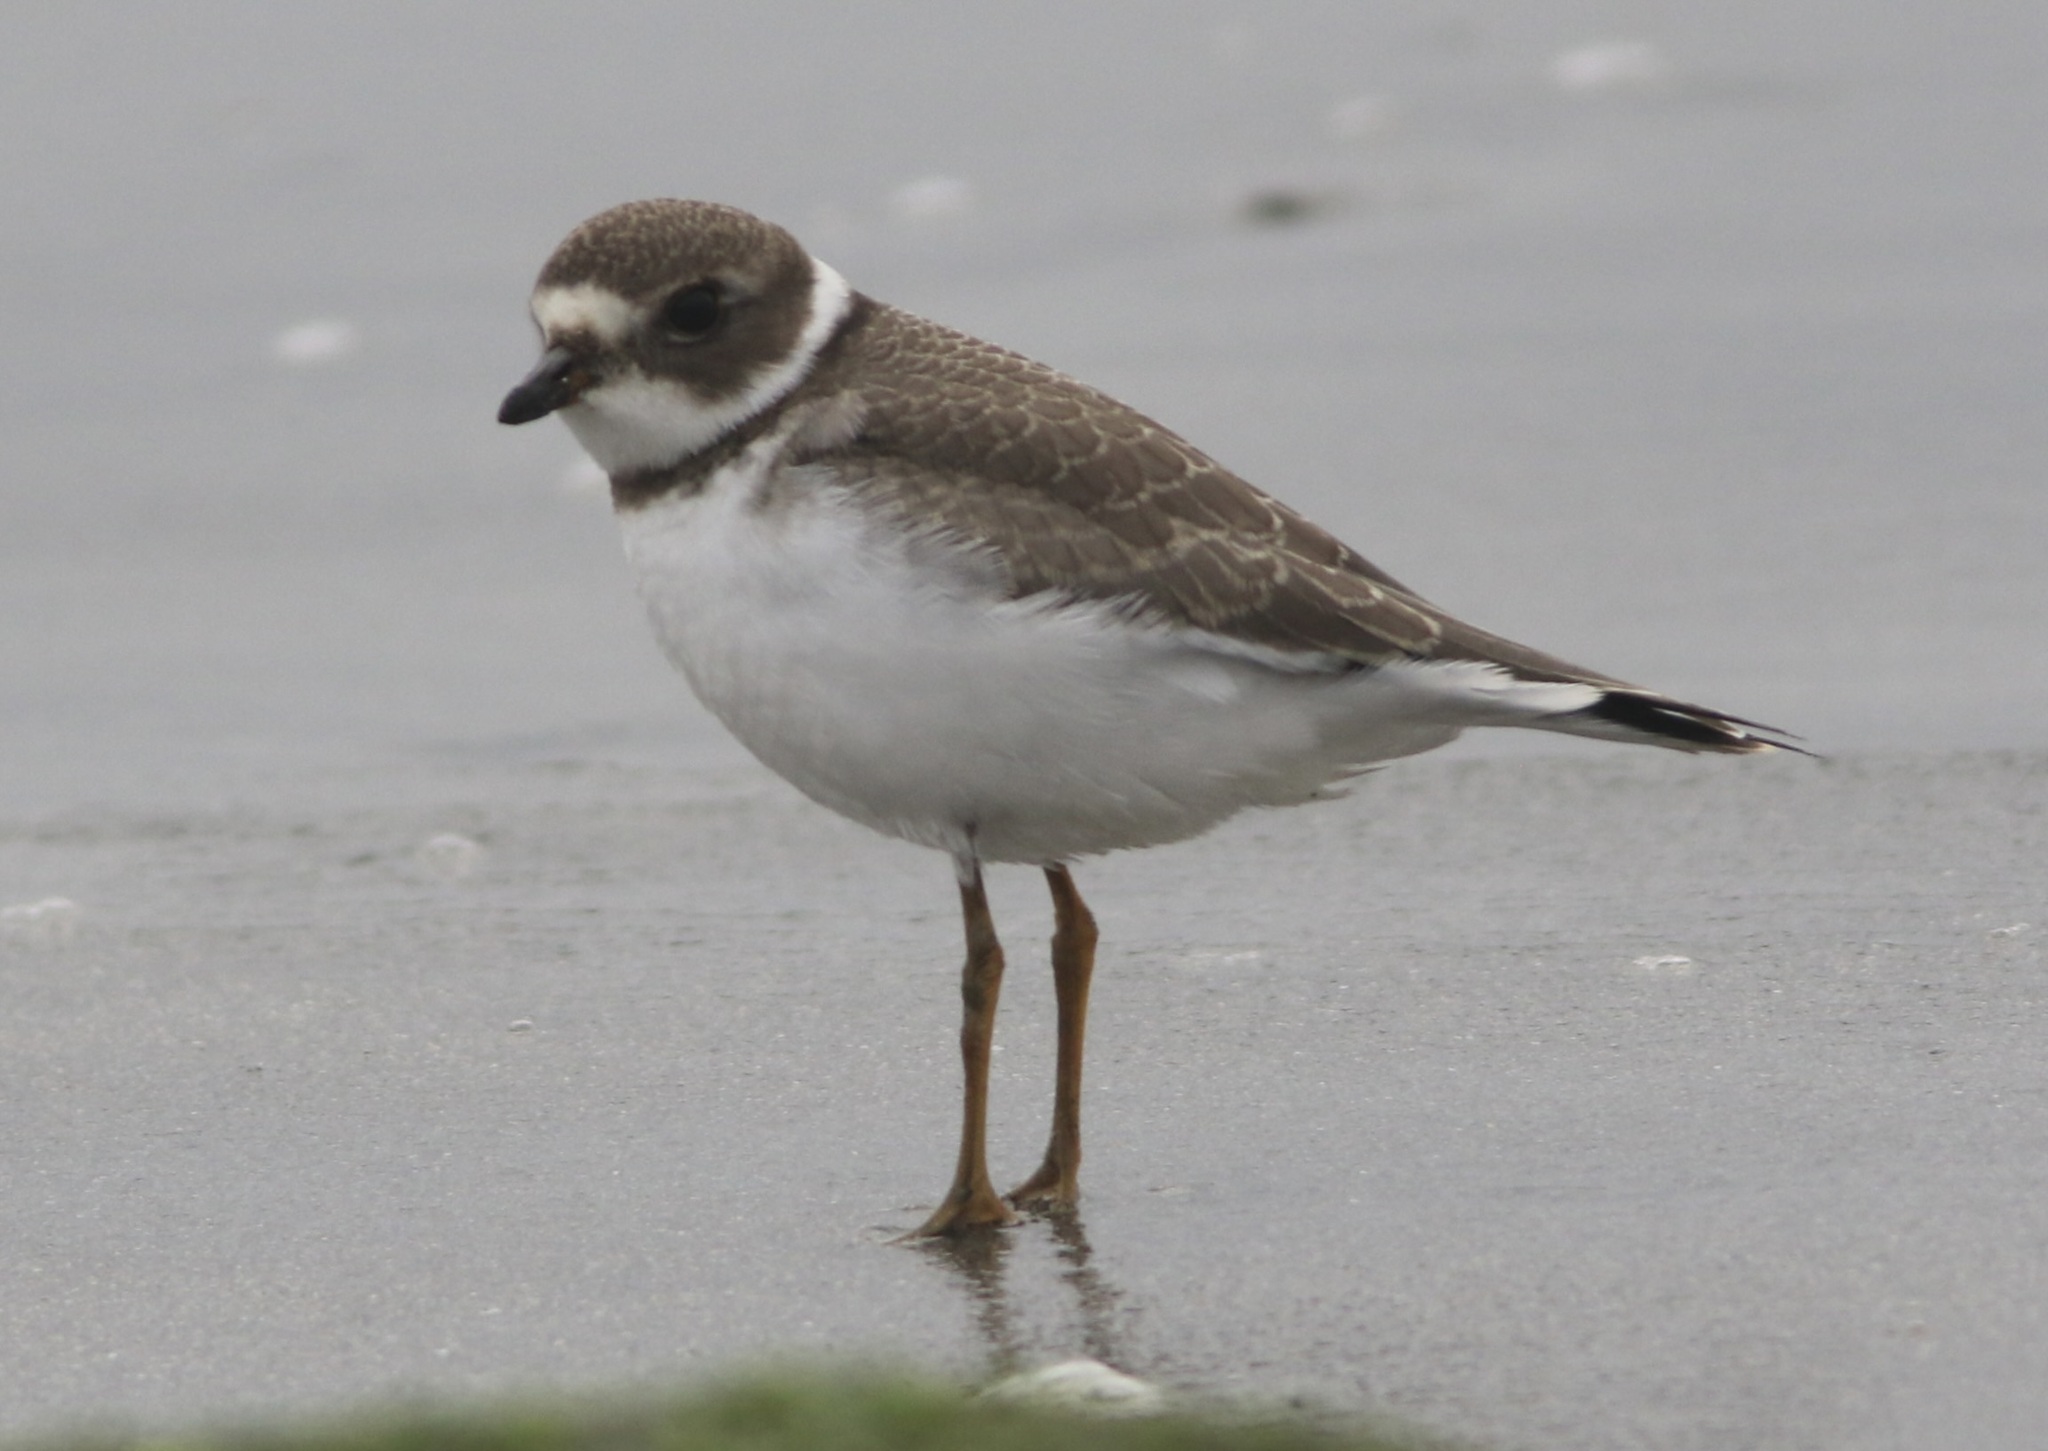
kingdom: Animalia
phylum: Chordata
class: Aves
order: Charadriiformes
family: Charadriidae
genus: Charadrius
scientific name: Charadrius semipalmatus
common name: Semipalmated plover
